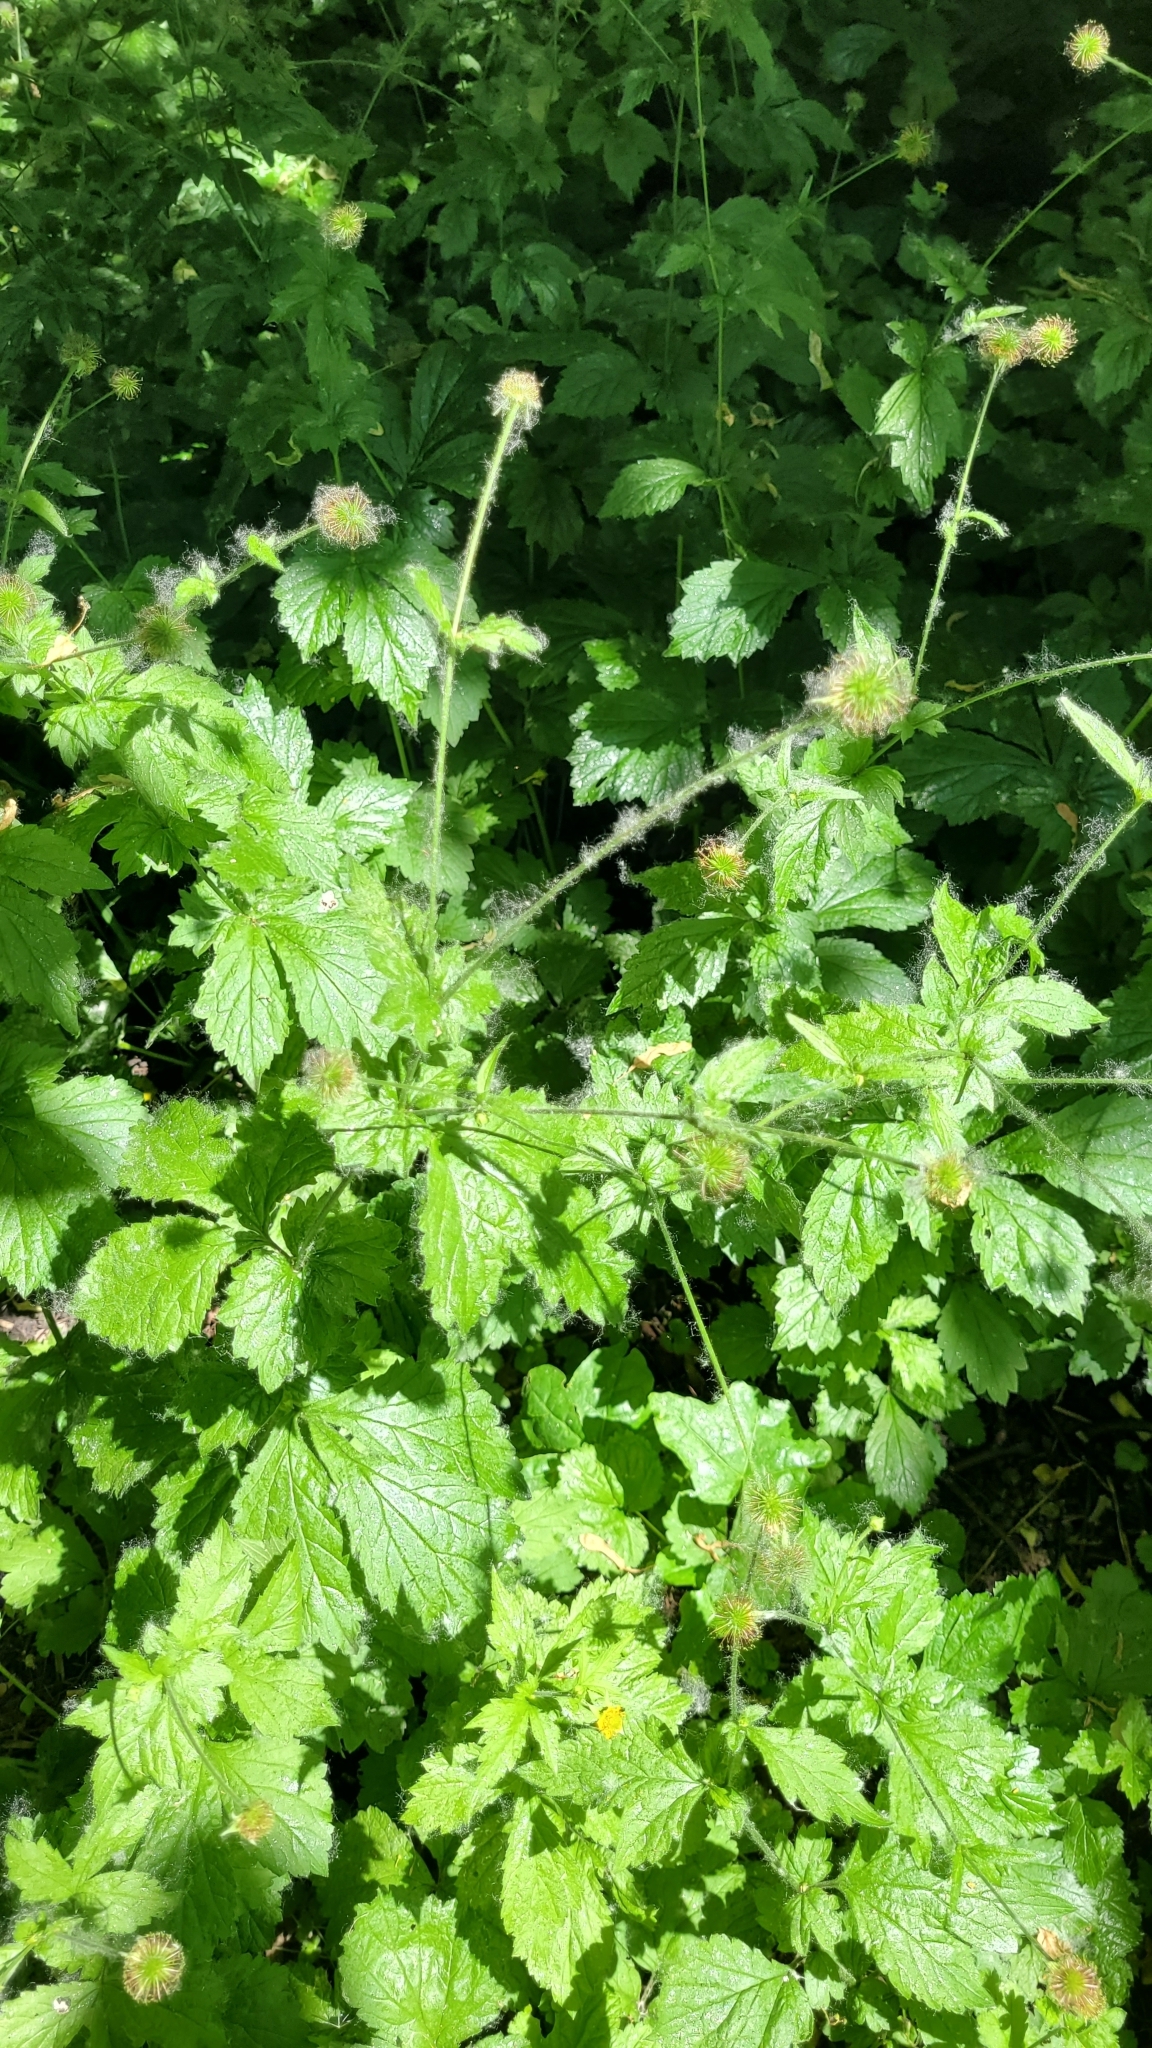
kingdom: Plantae
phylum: Tracheophyta
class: Magnoliopsida
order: Rosales
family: Rosaceae
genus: Geum
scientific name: Geum urbanum
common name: Wood avens
